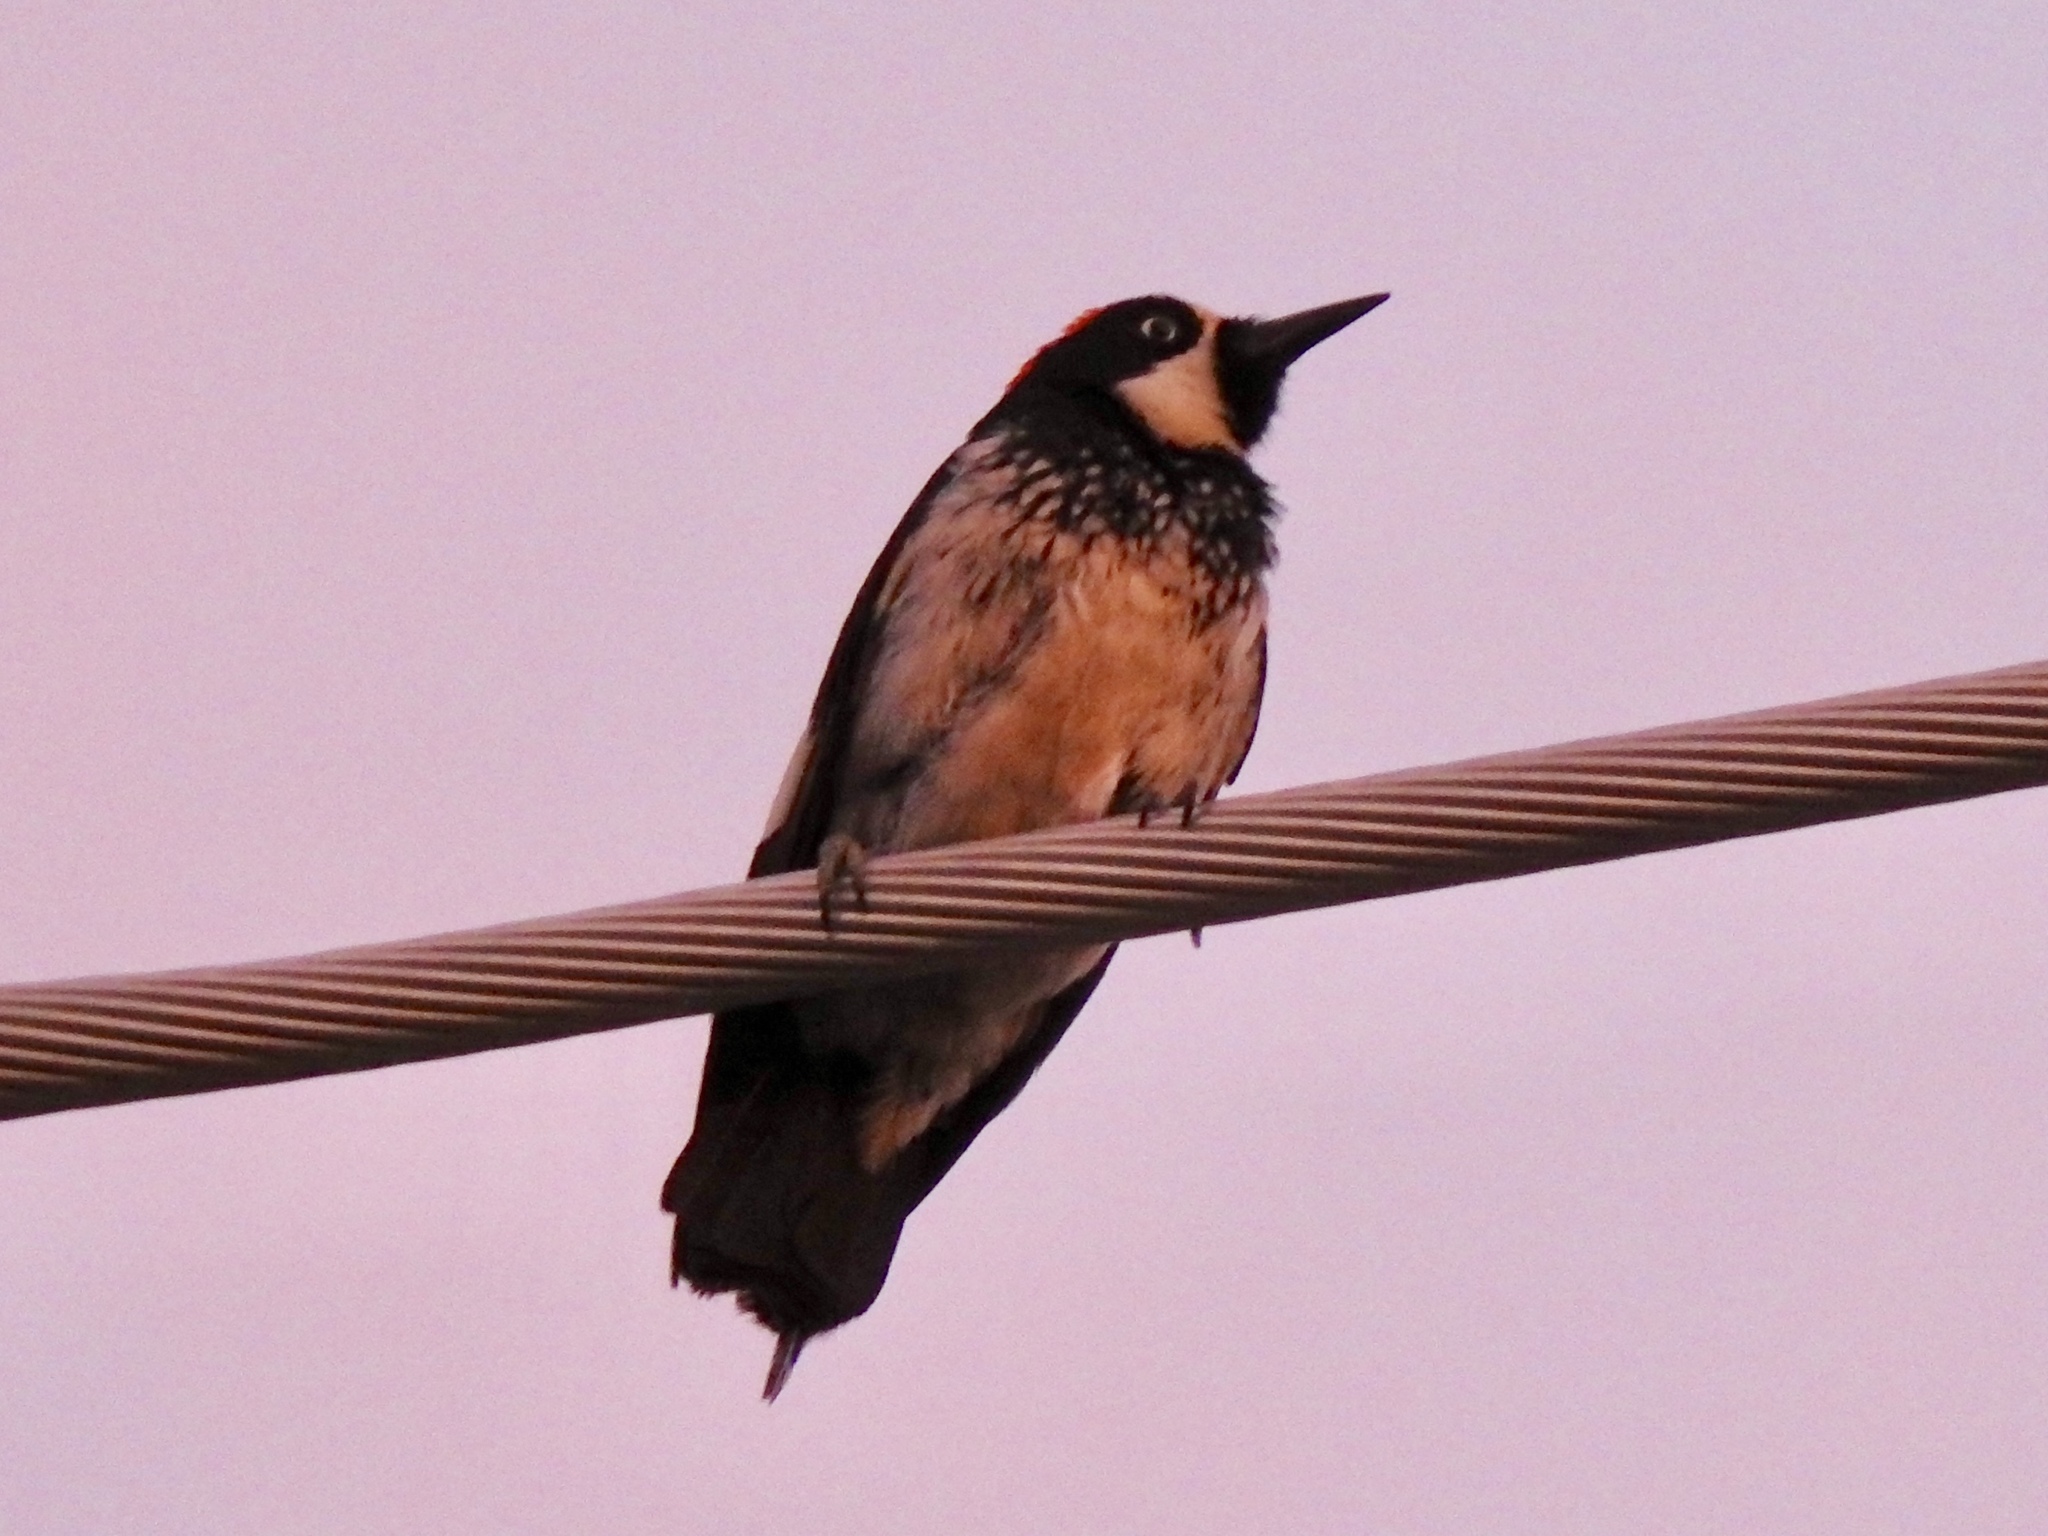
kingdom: Animalia
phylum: Chordata
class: Aves
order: Piciformes
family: Picidae
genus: Melanerpes
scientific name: Melanerpes formicivorus
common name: Acorn woodpecker
